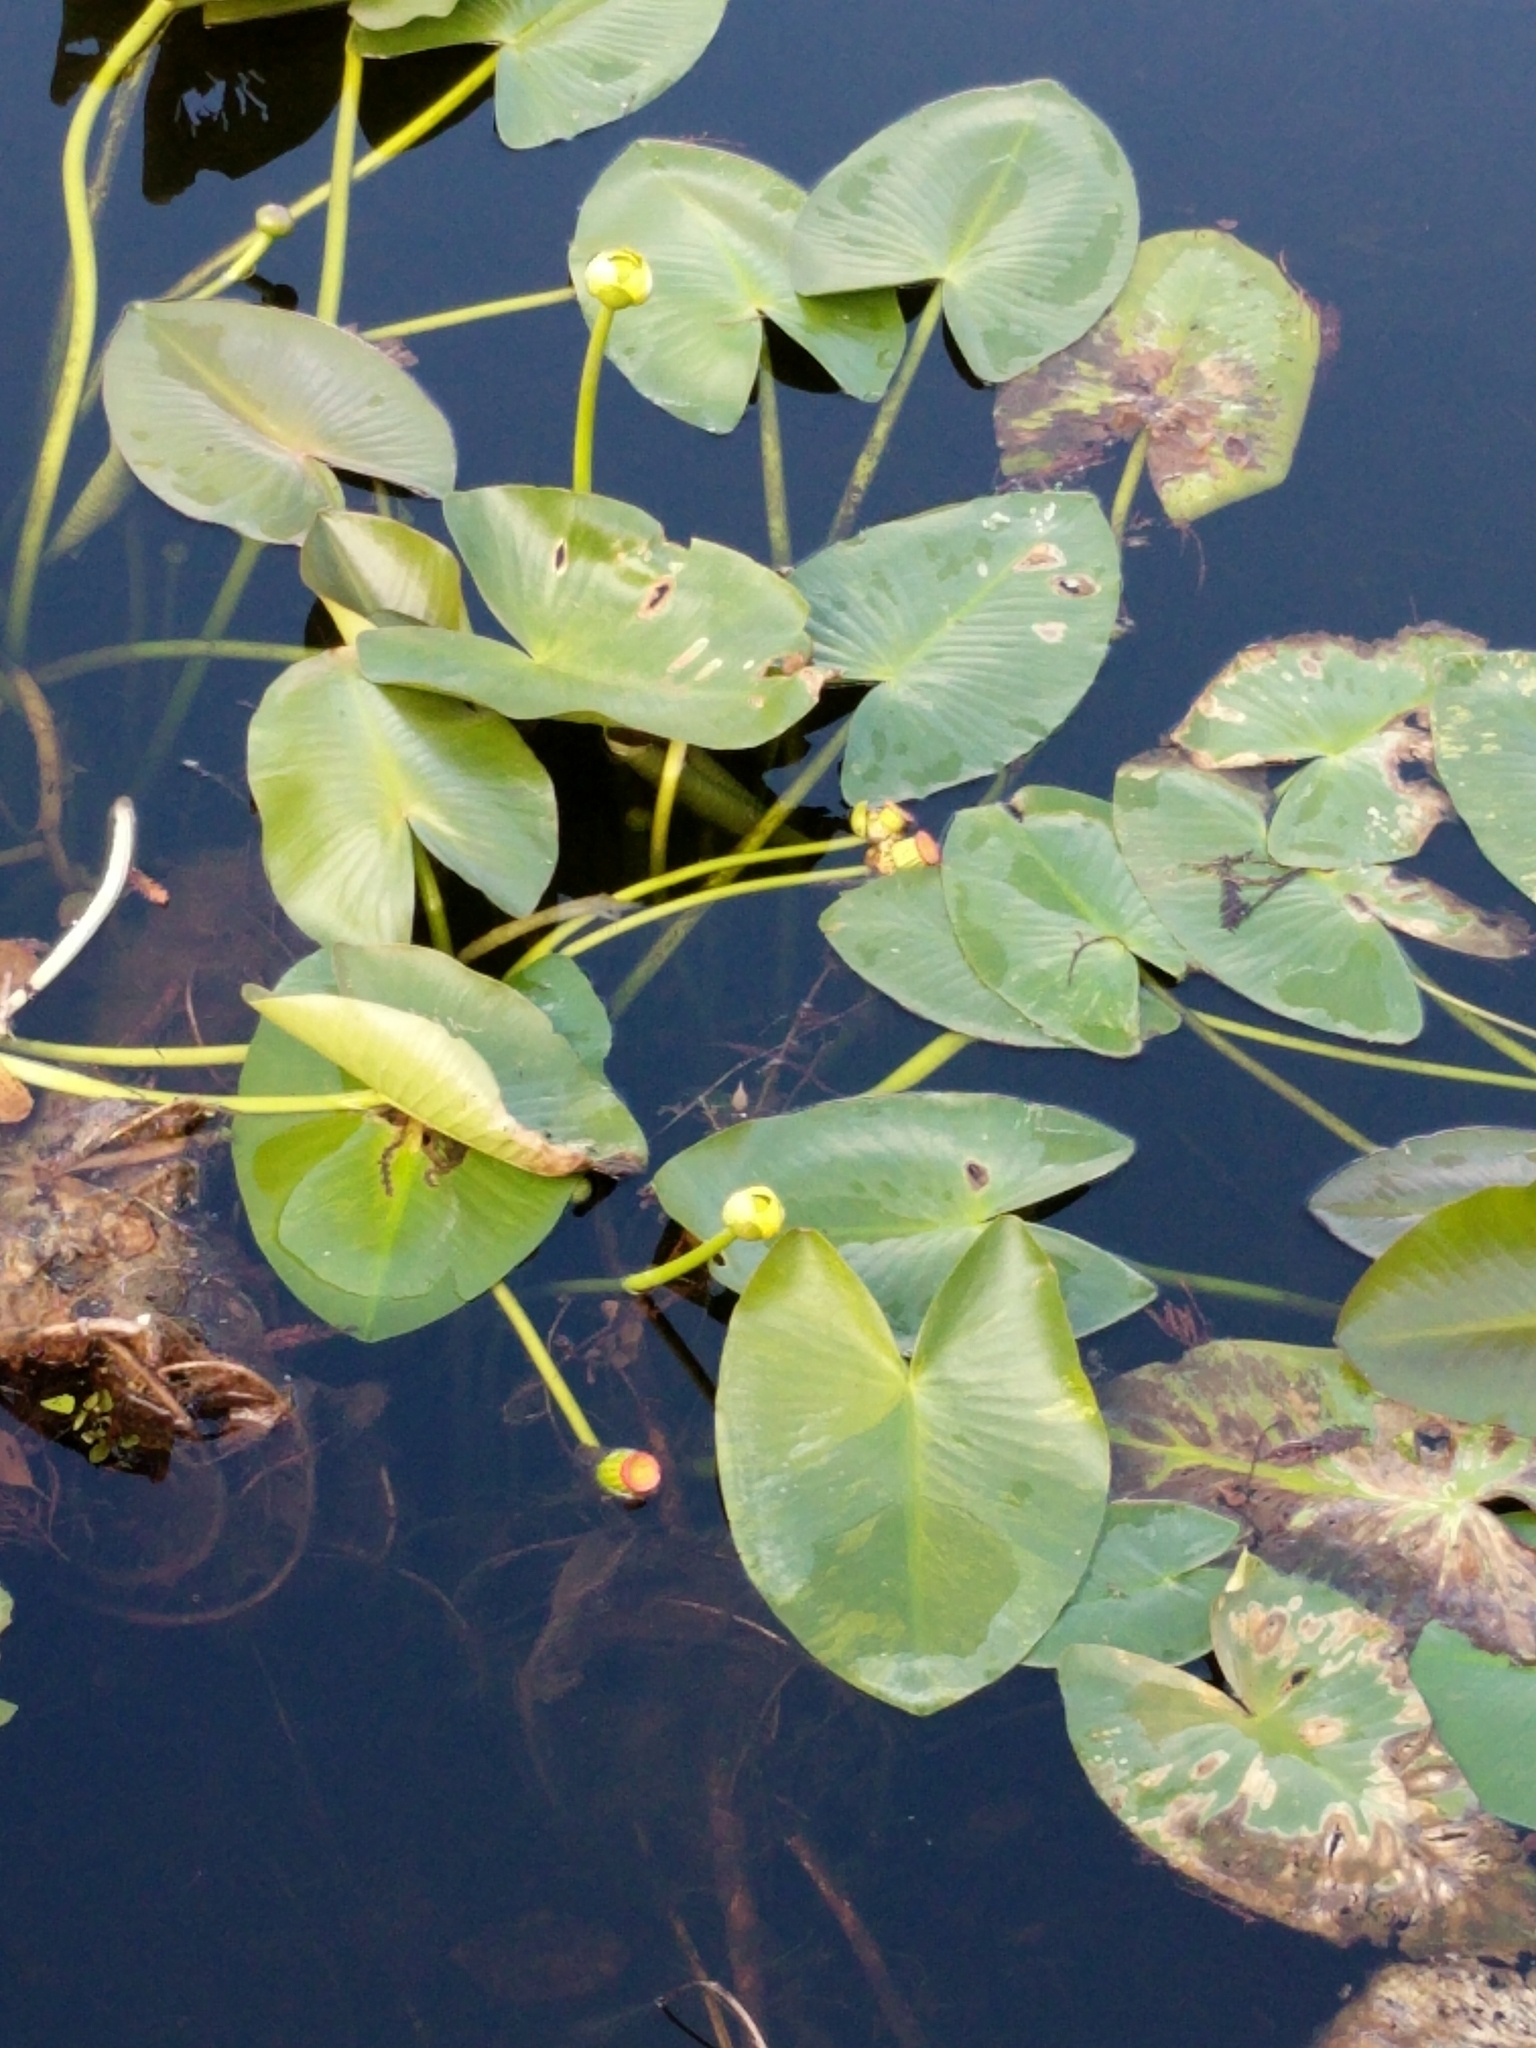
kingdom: Plantae
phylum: Tracheophyta
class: Magnoliopsida
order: Nymphaeales
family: Nymphaeaceae
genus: Nuphar
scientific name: Nuphar advena
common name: Spatter-dock
